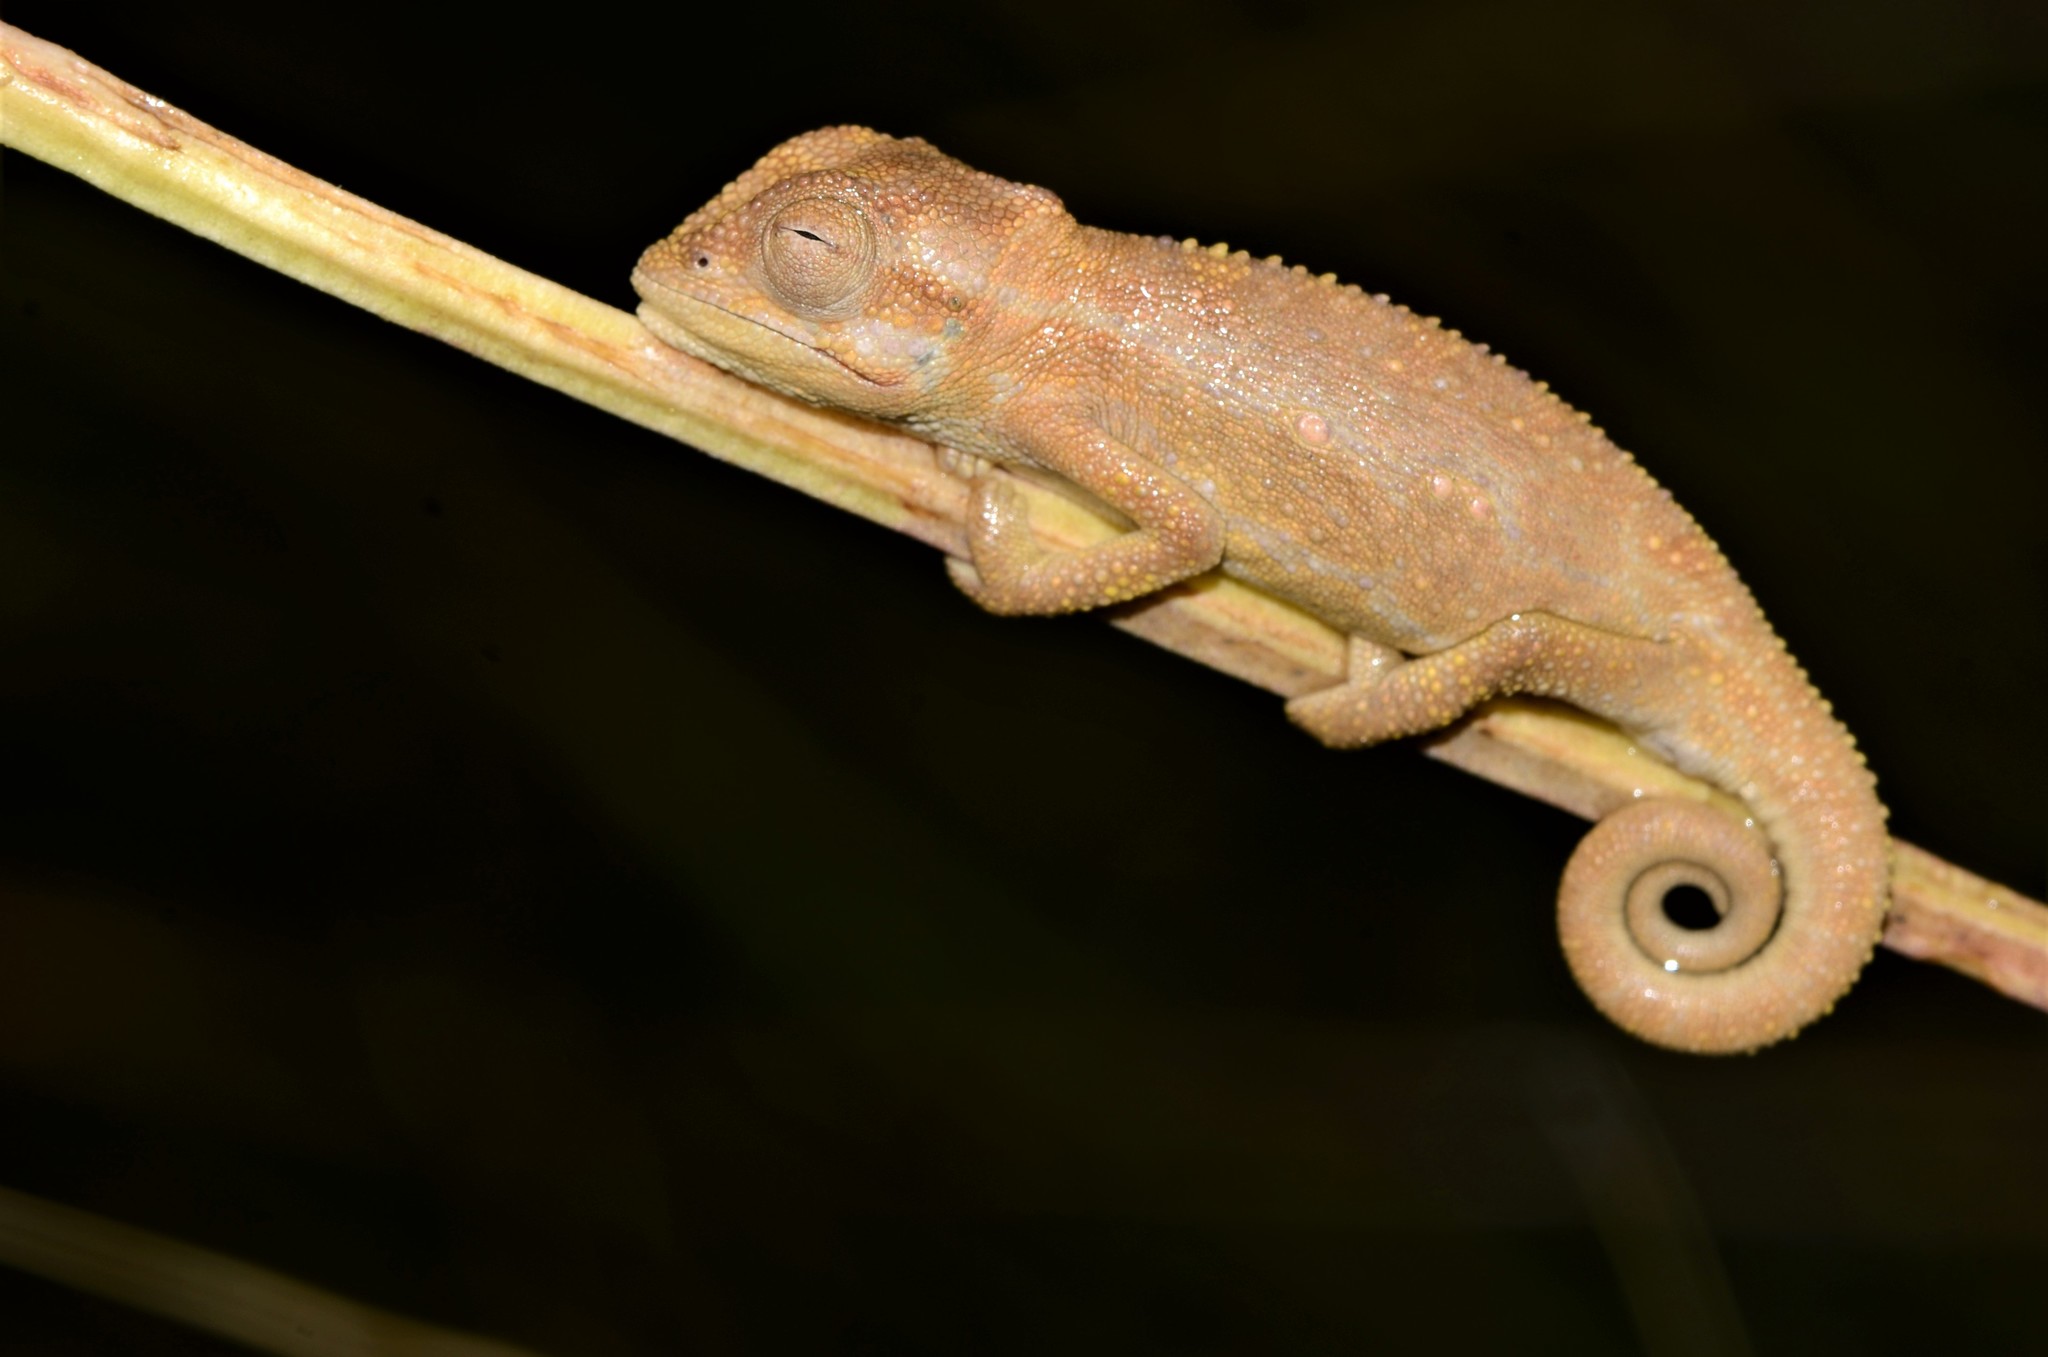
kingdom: Animalia
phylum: Chordata
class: Squamata
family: Chamaeleonidae
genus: Bradypodion
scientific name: Bradypodion pumilum
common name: Cape dwarf chameleon
